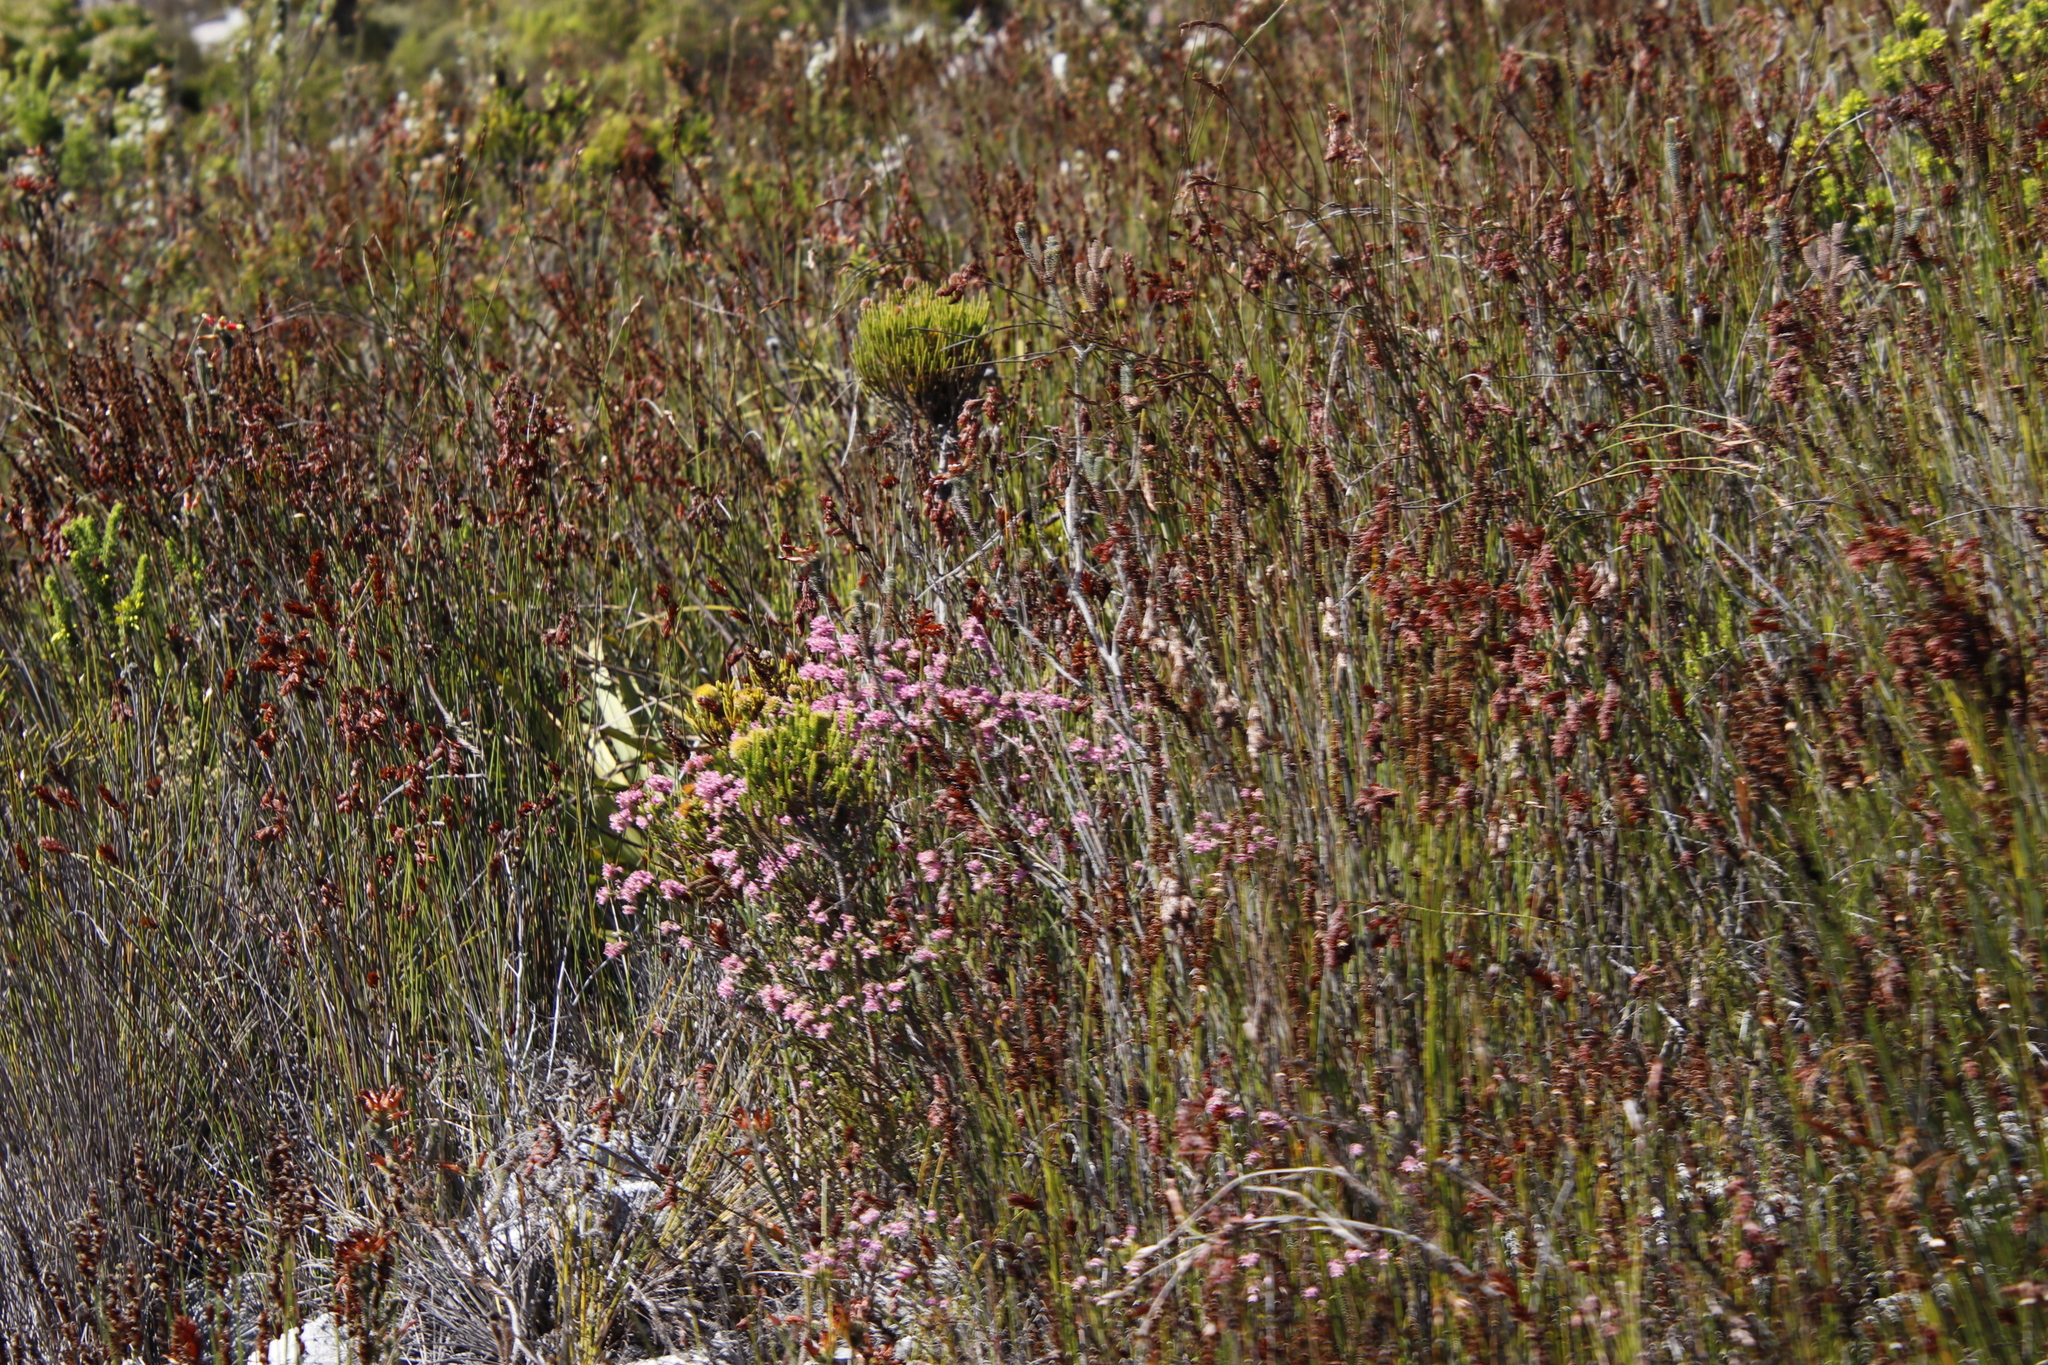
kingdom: Plantae
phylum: Tracheophyta
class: Magnoliopsida
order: Ericales
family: Ericaceae
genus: Erica
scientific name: Erica corifolia
